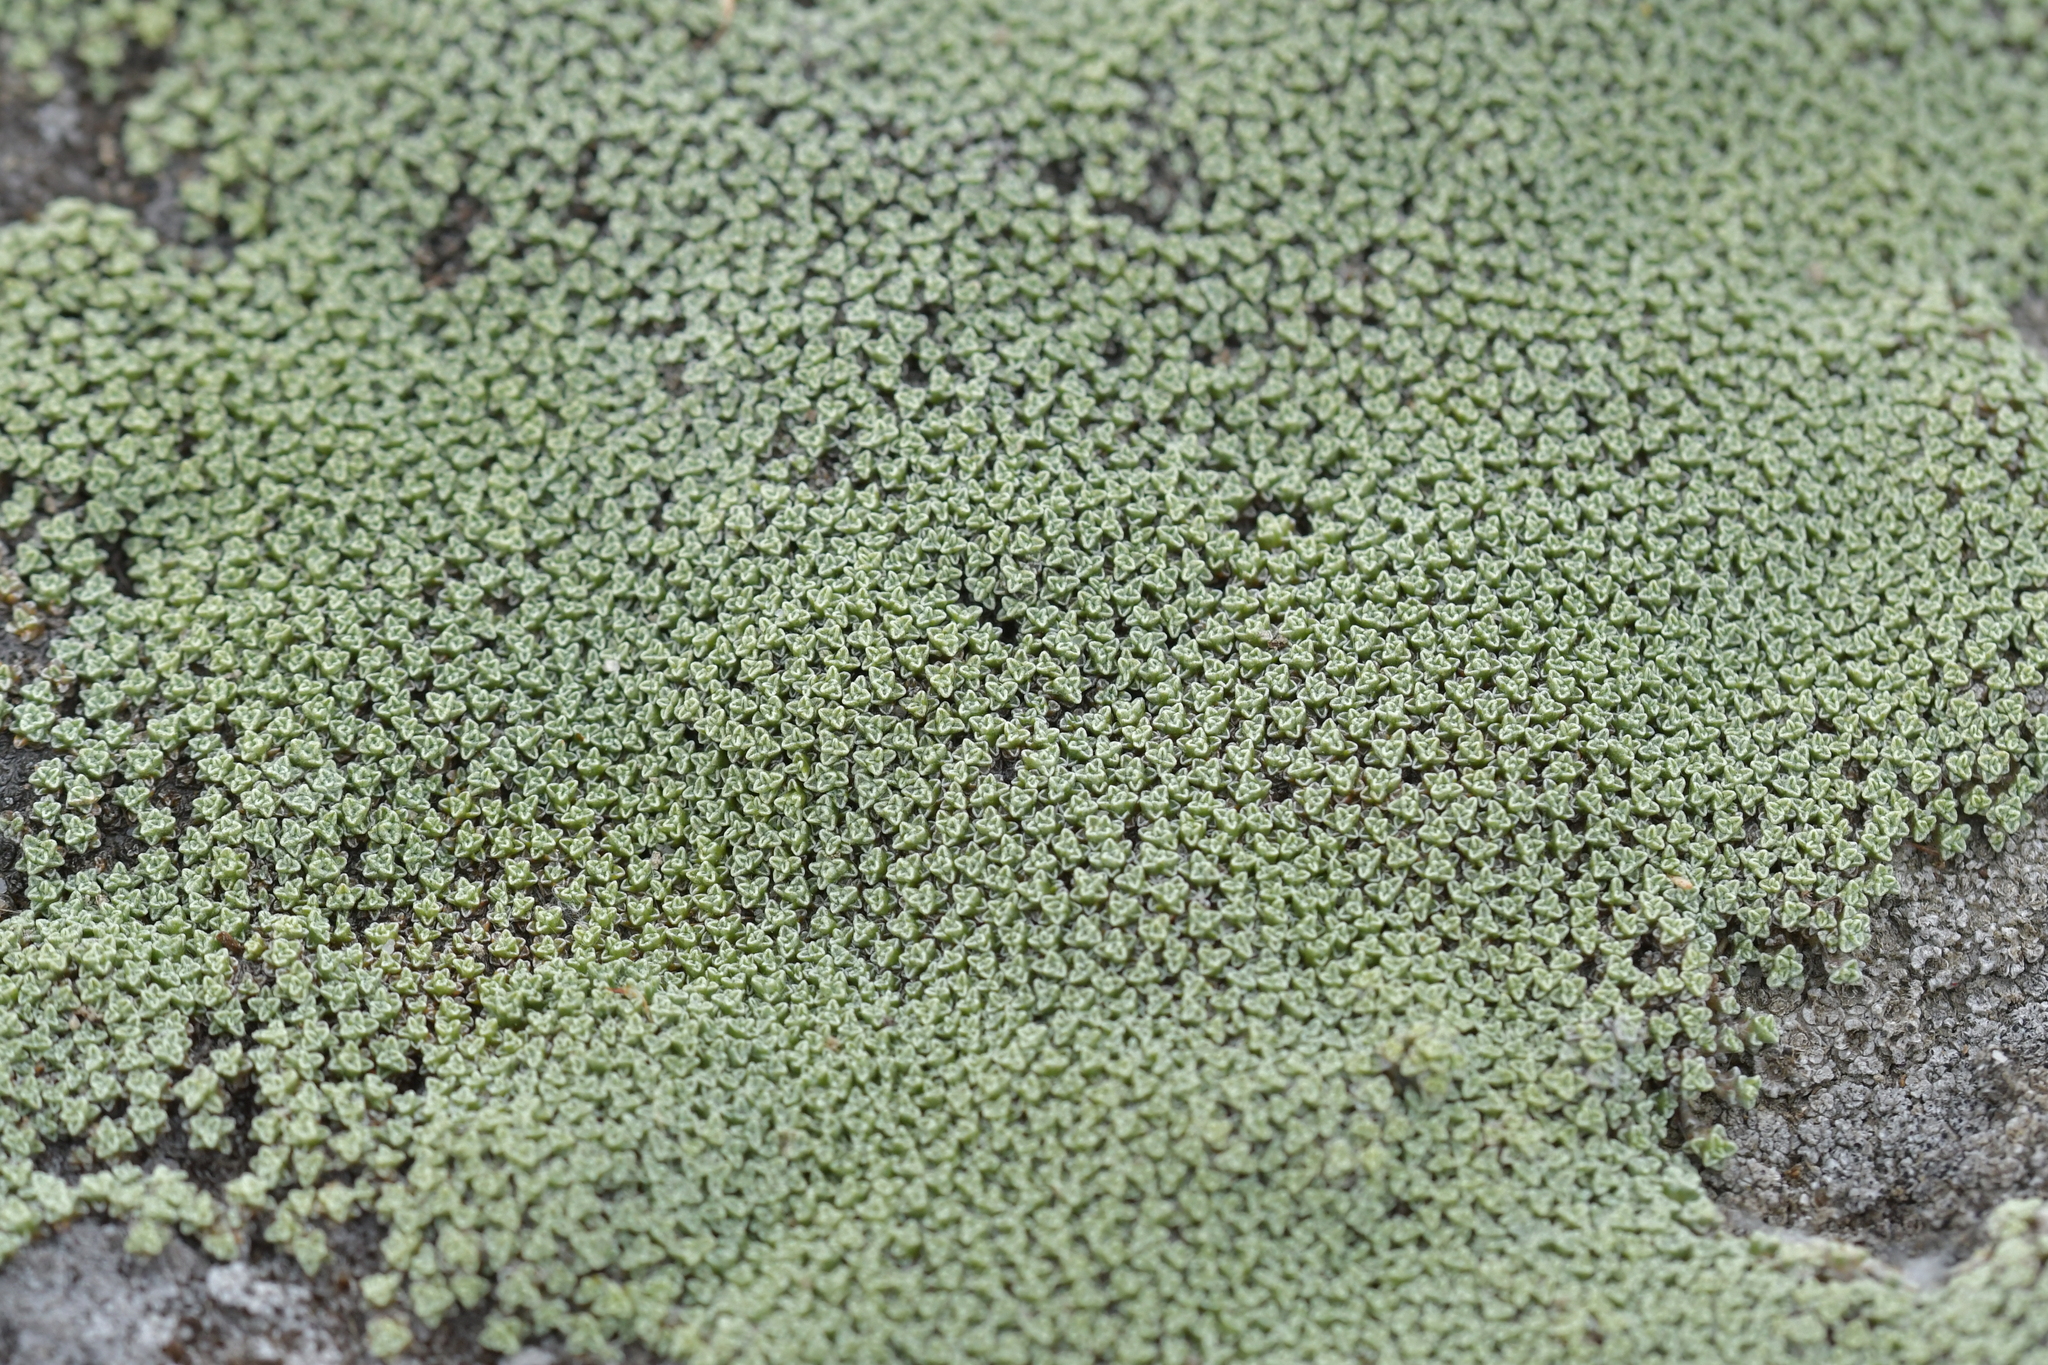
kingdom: Plantae
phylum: Tracheophyta
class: Magnoliopsida
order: Asterales
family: Asteraceae
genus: Raoulia
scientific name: Raoulia australis
